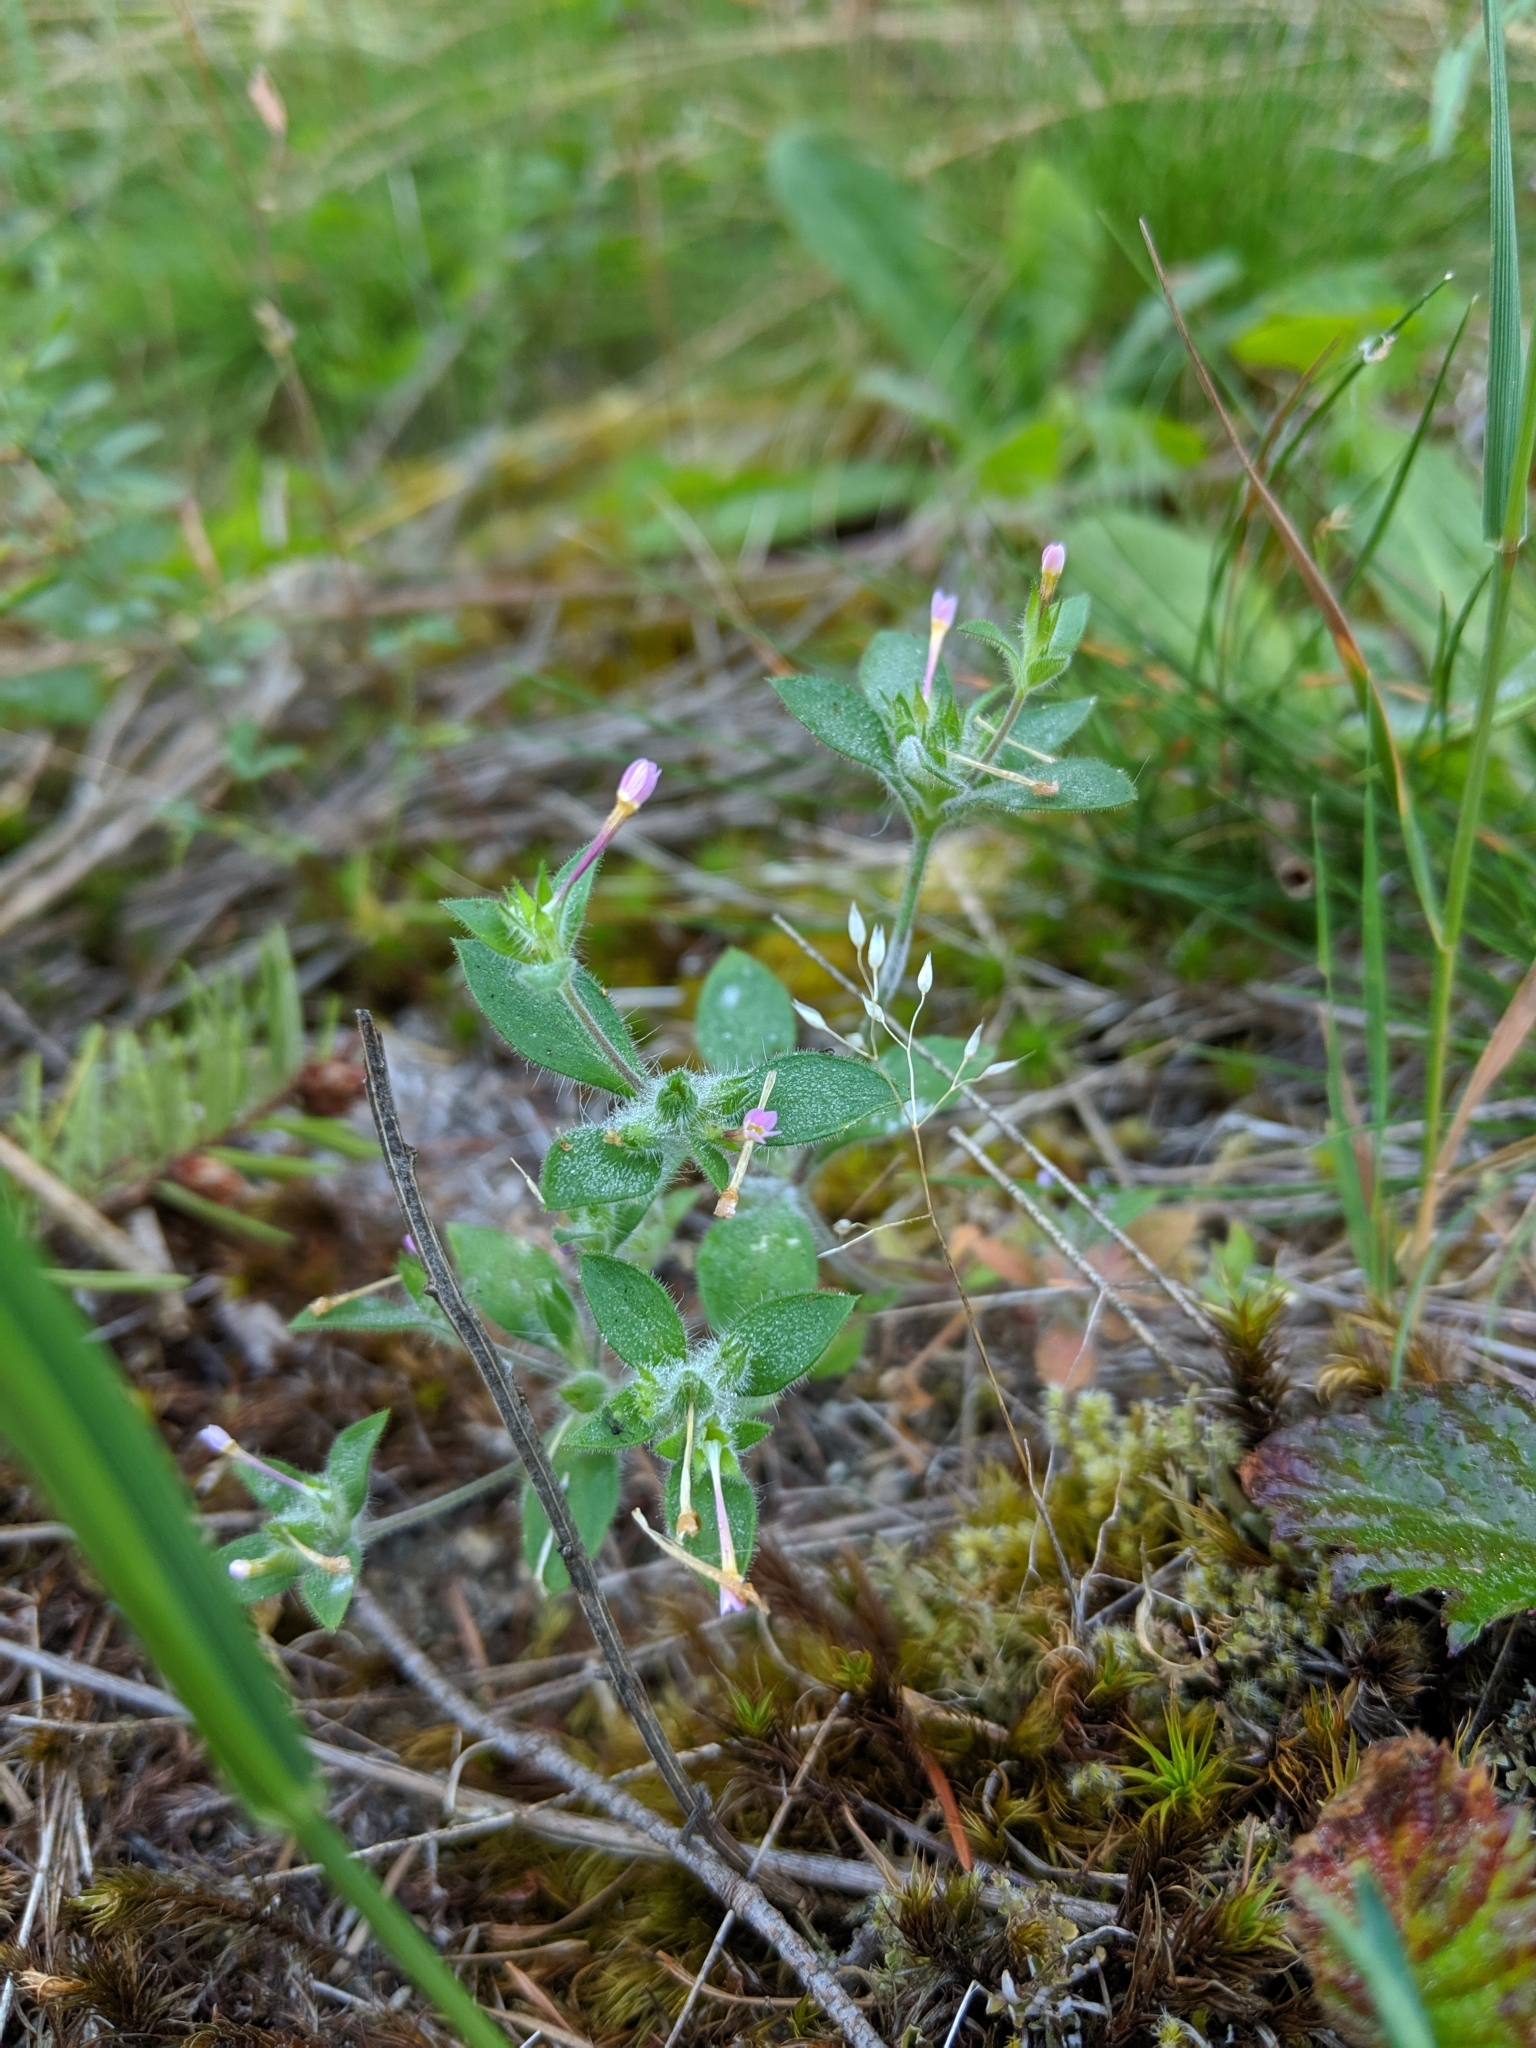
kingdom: Plantae
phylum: Tracheophyta
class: Magnoliopsida
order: Ericales
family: Polemoniaceae
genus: Collomia
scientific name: Collomia heterophylla
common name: Variable-leaved collomia
